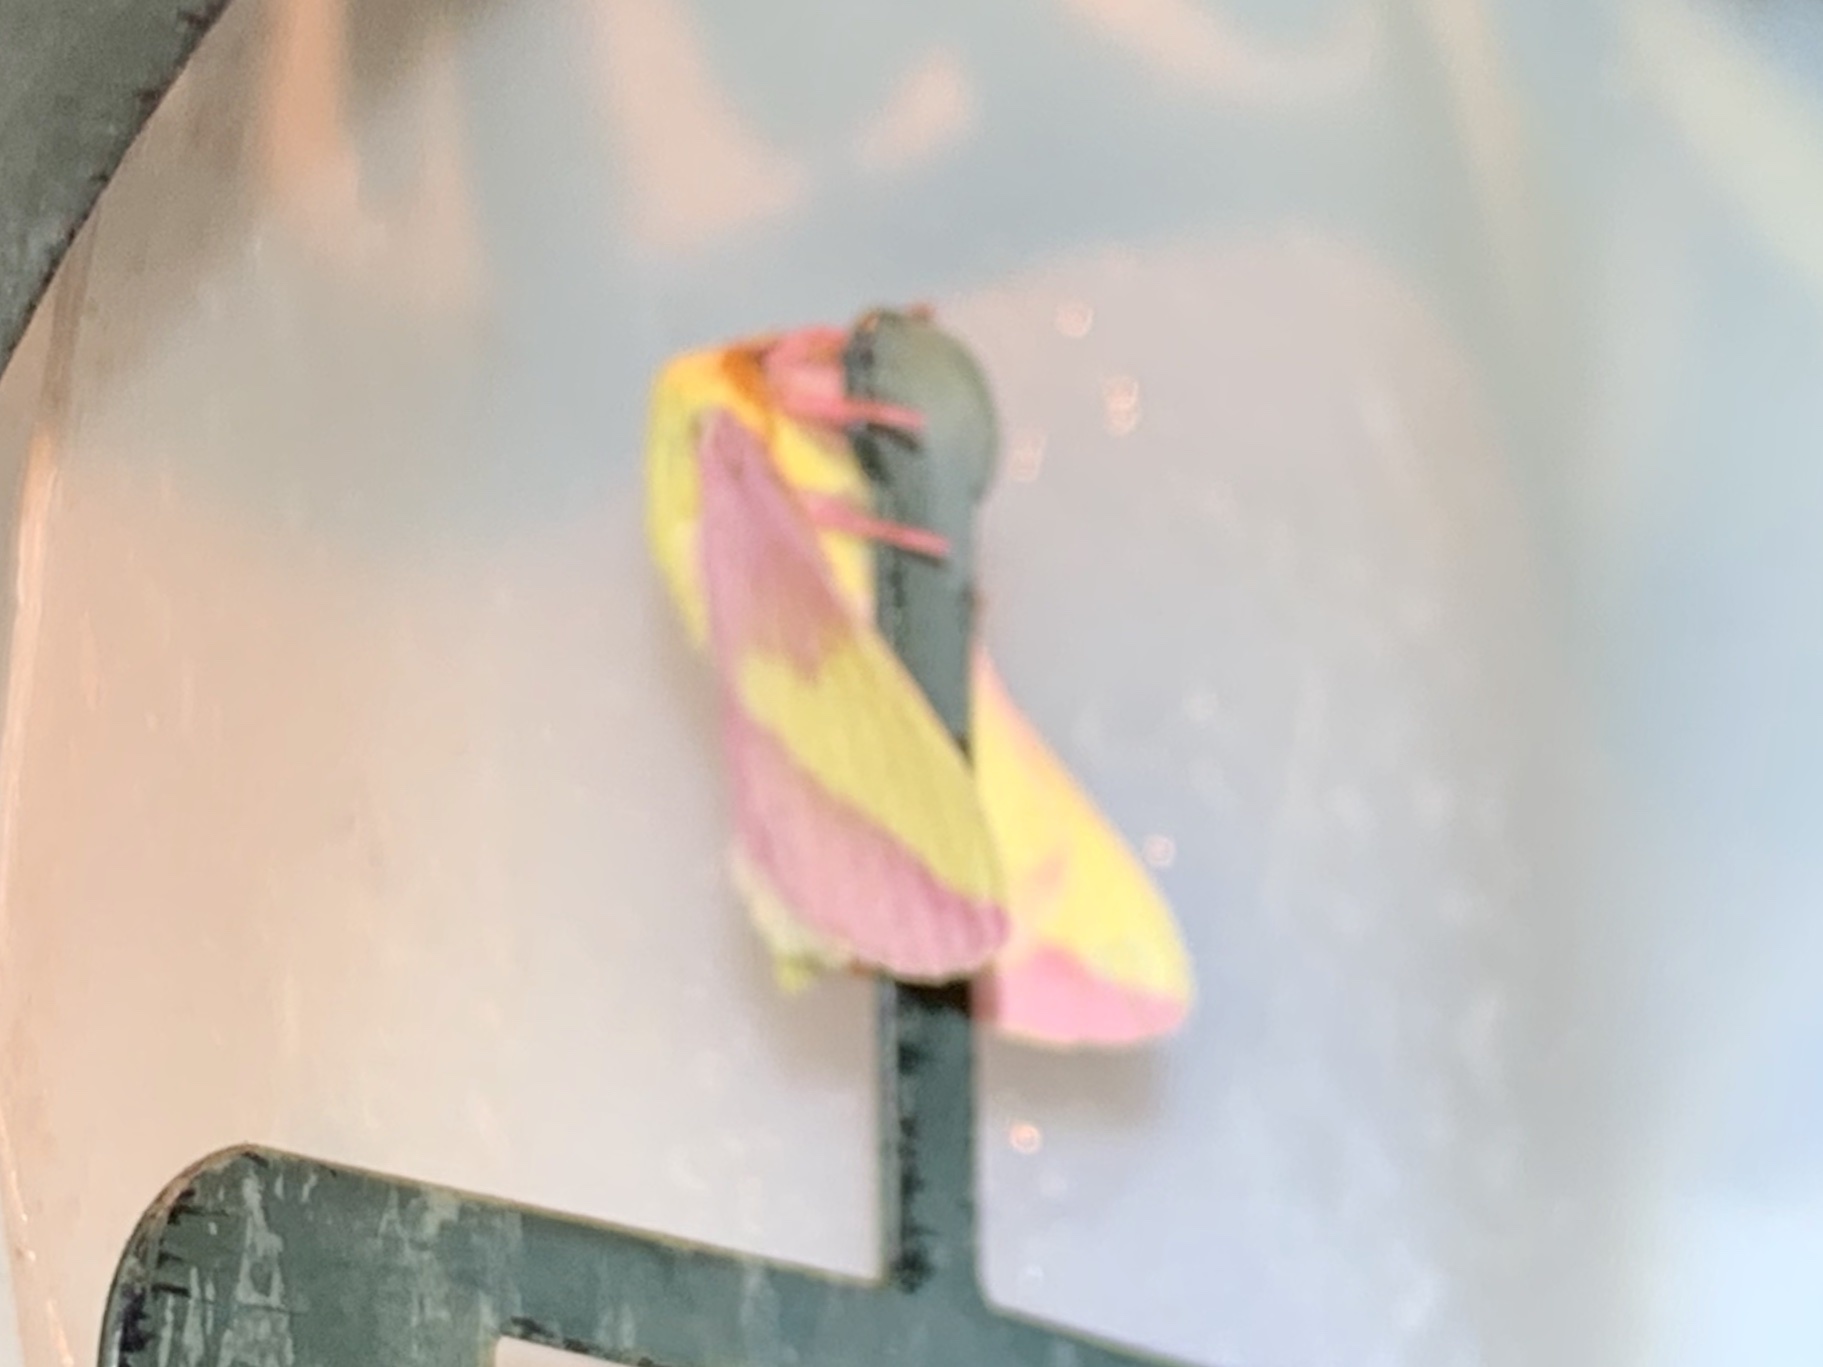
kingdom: Animalia
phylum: Arthropoda
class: Insecta
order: Lepidoptera
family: Saturniidae
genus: Dryocampa
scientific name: Dryocampa rubicunda
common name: Rosy maple moth
